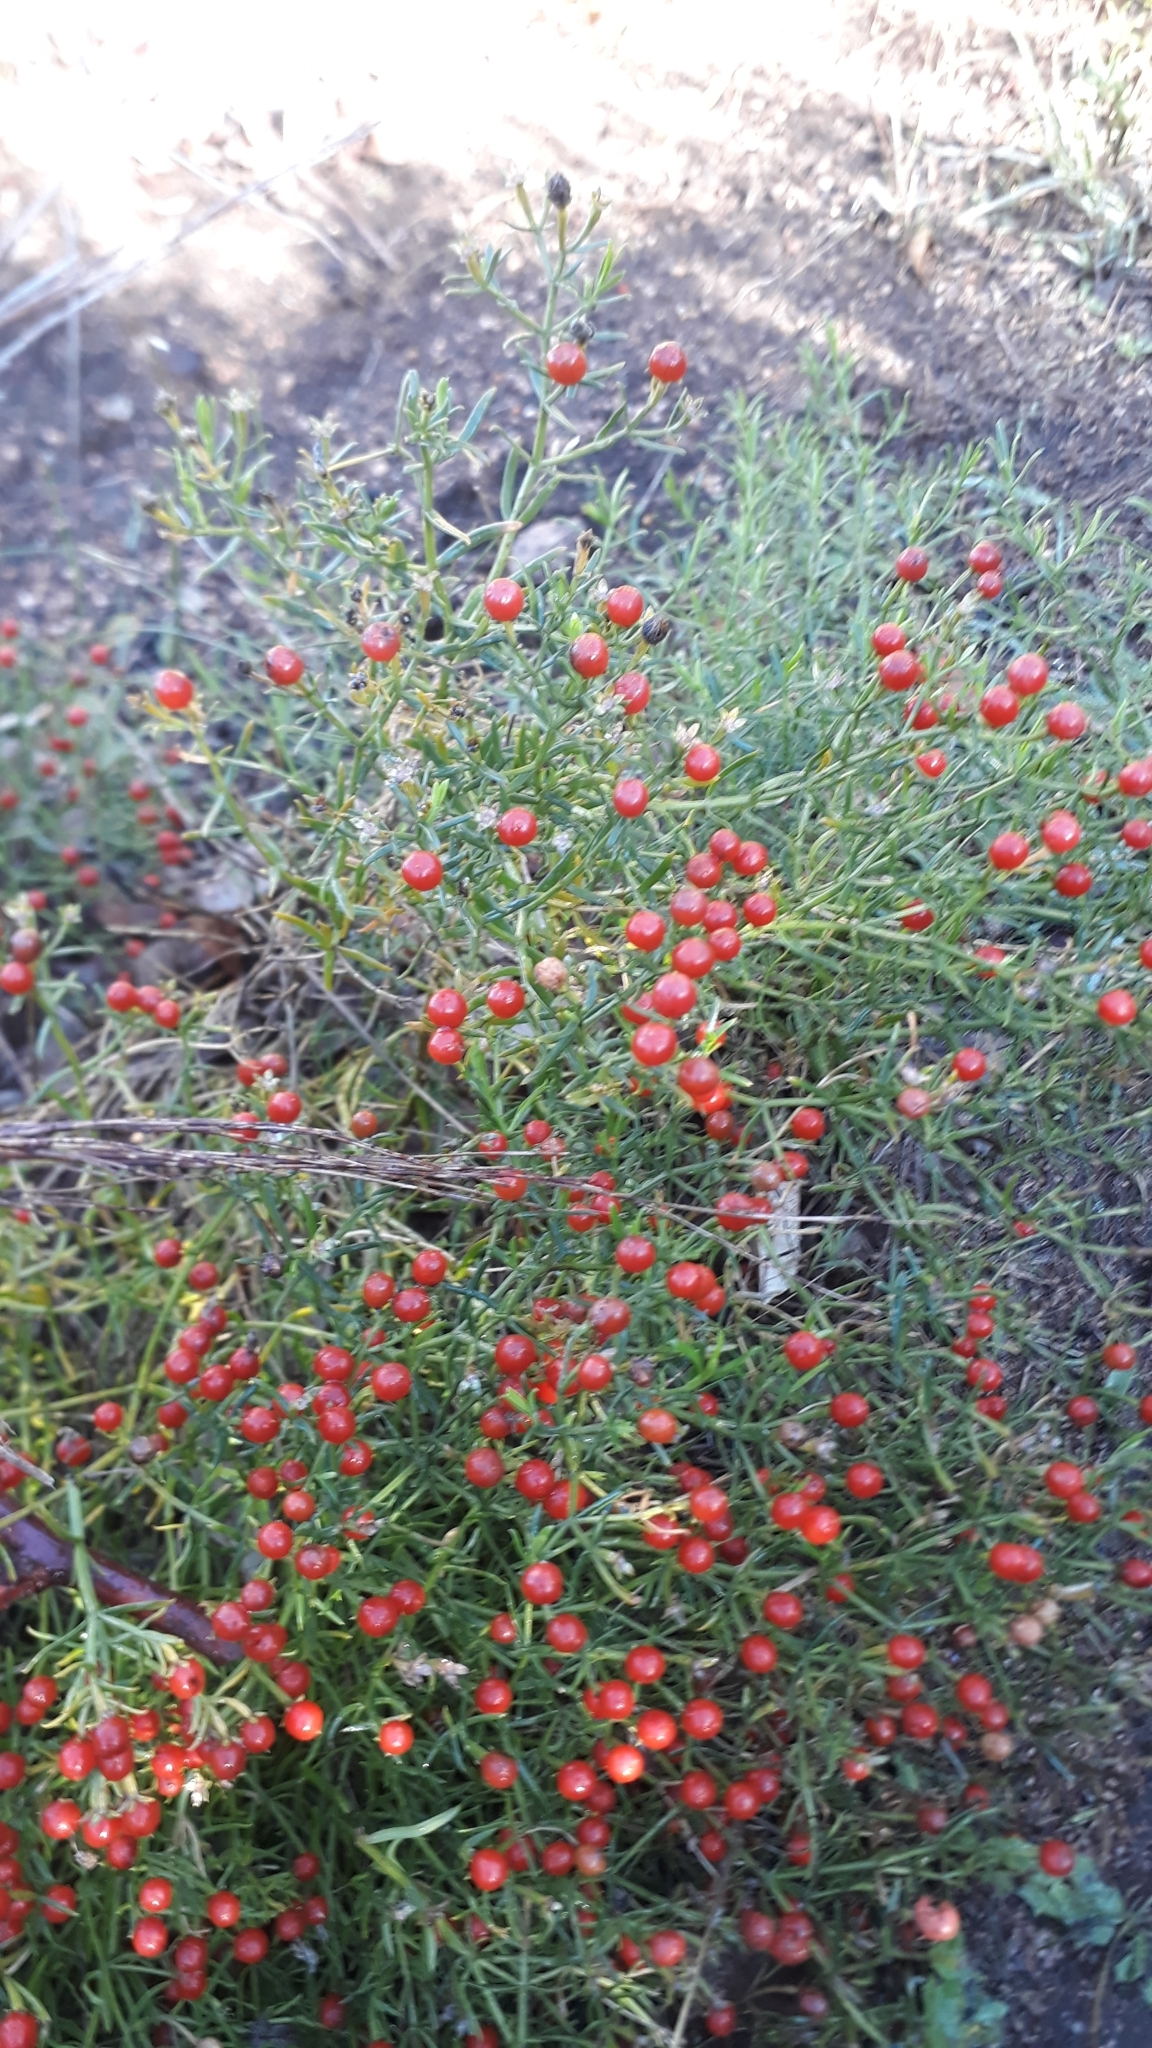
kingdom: Plantae
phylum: Tracheophyta
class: Magnoliopsida
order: Gentianales
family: Gentianaceae
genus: Chironia
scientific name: Chironia baccifera
